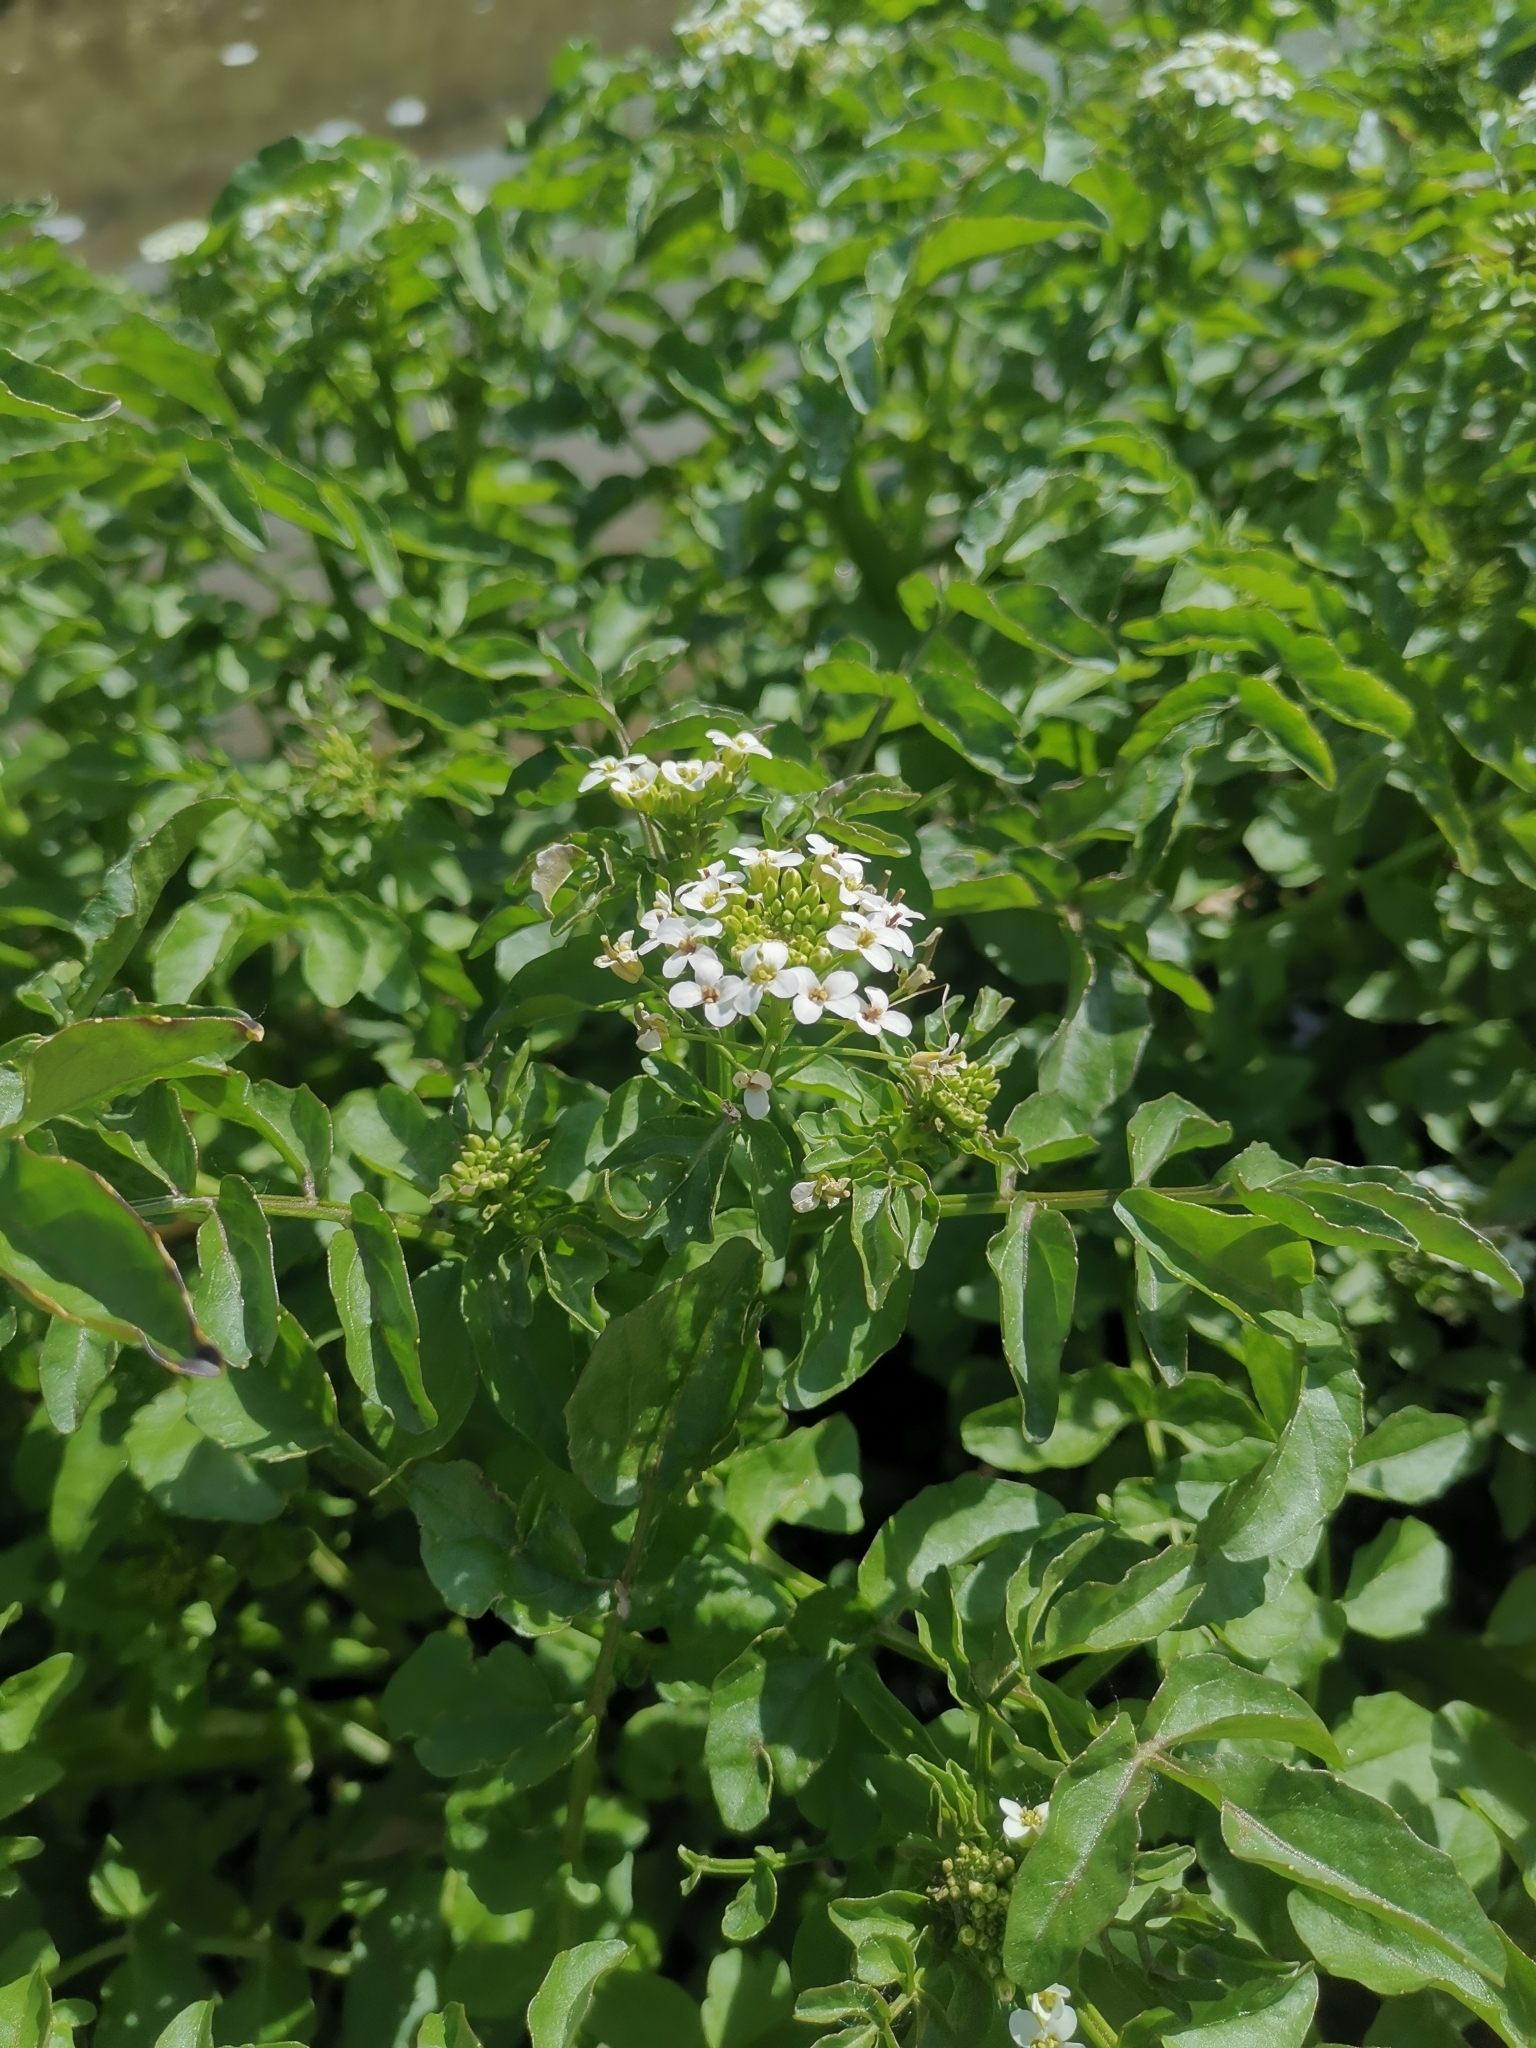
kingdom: Plantae
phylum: Tracheophyta
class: Magnoliopsida
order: Brassicales
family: Brassicaceae
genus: Nasturtium
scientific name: Nasturtium officinale
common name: Watercress
